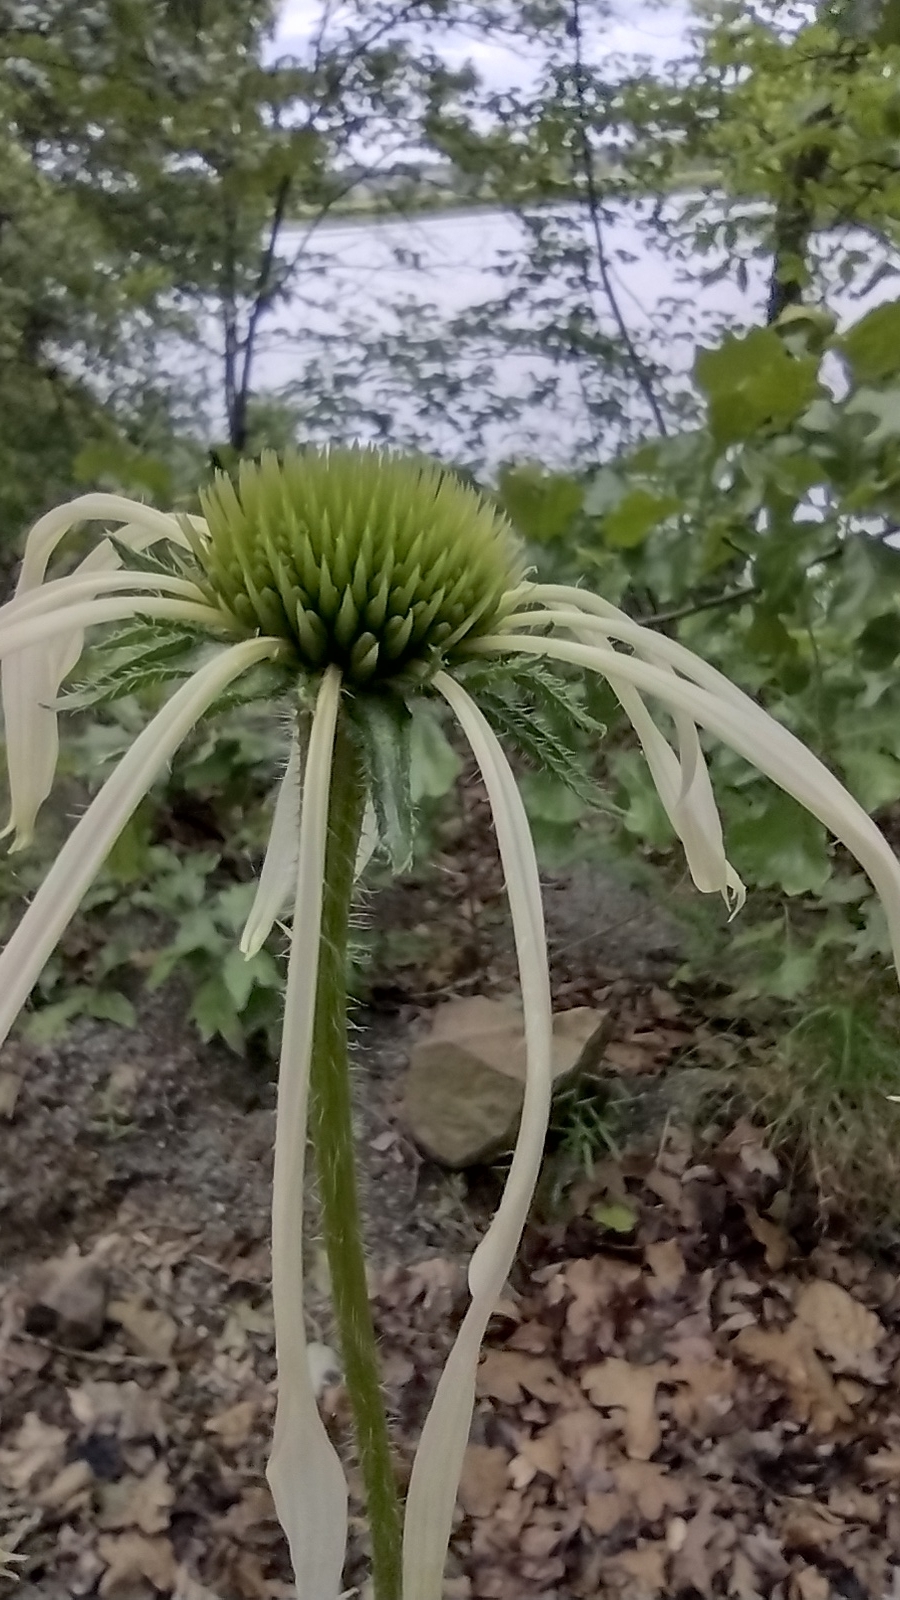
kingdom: Plantae
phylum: Tracheophyta
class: Magnoliopsida
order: Asterales
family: Asteraceae
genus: Echinacea
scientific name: Echinacea pallida
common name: Pale echinacea
